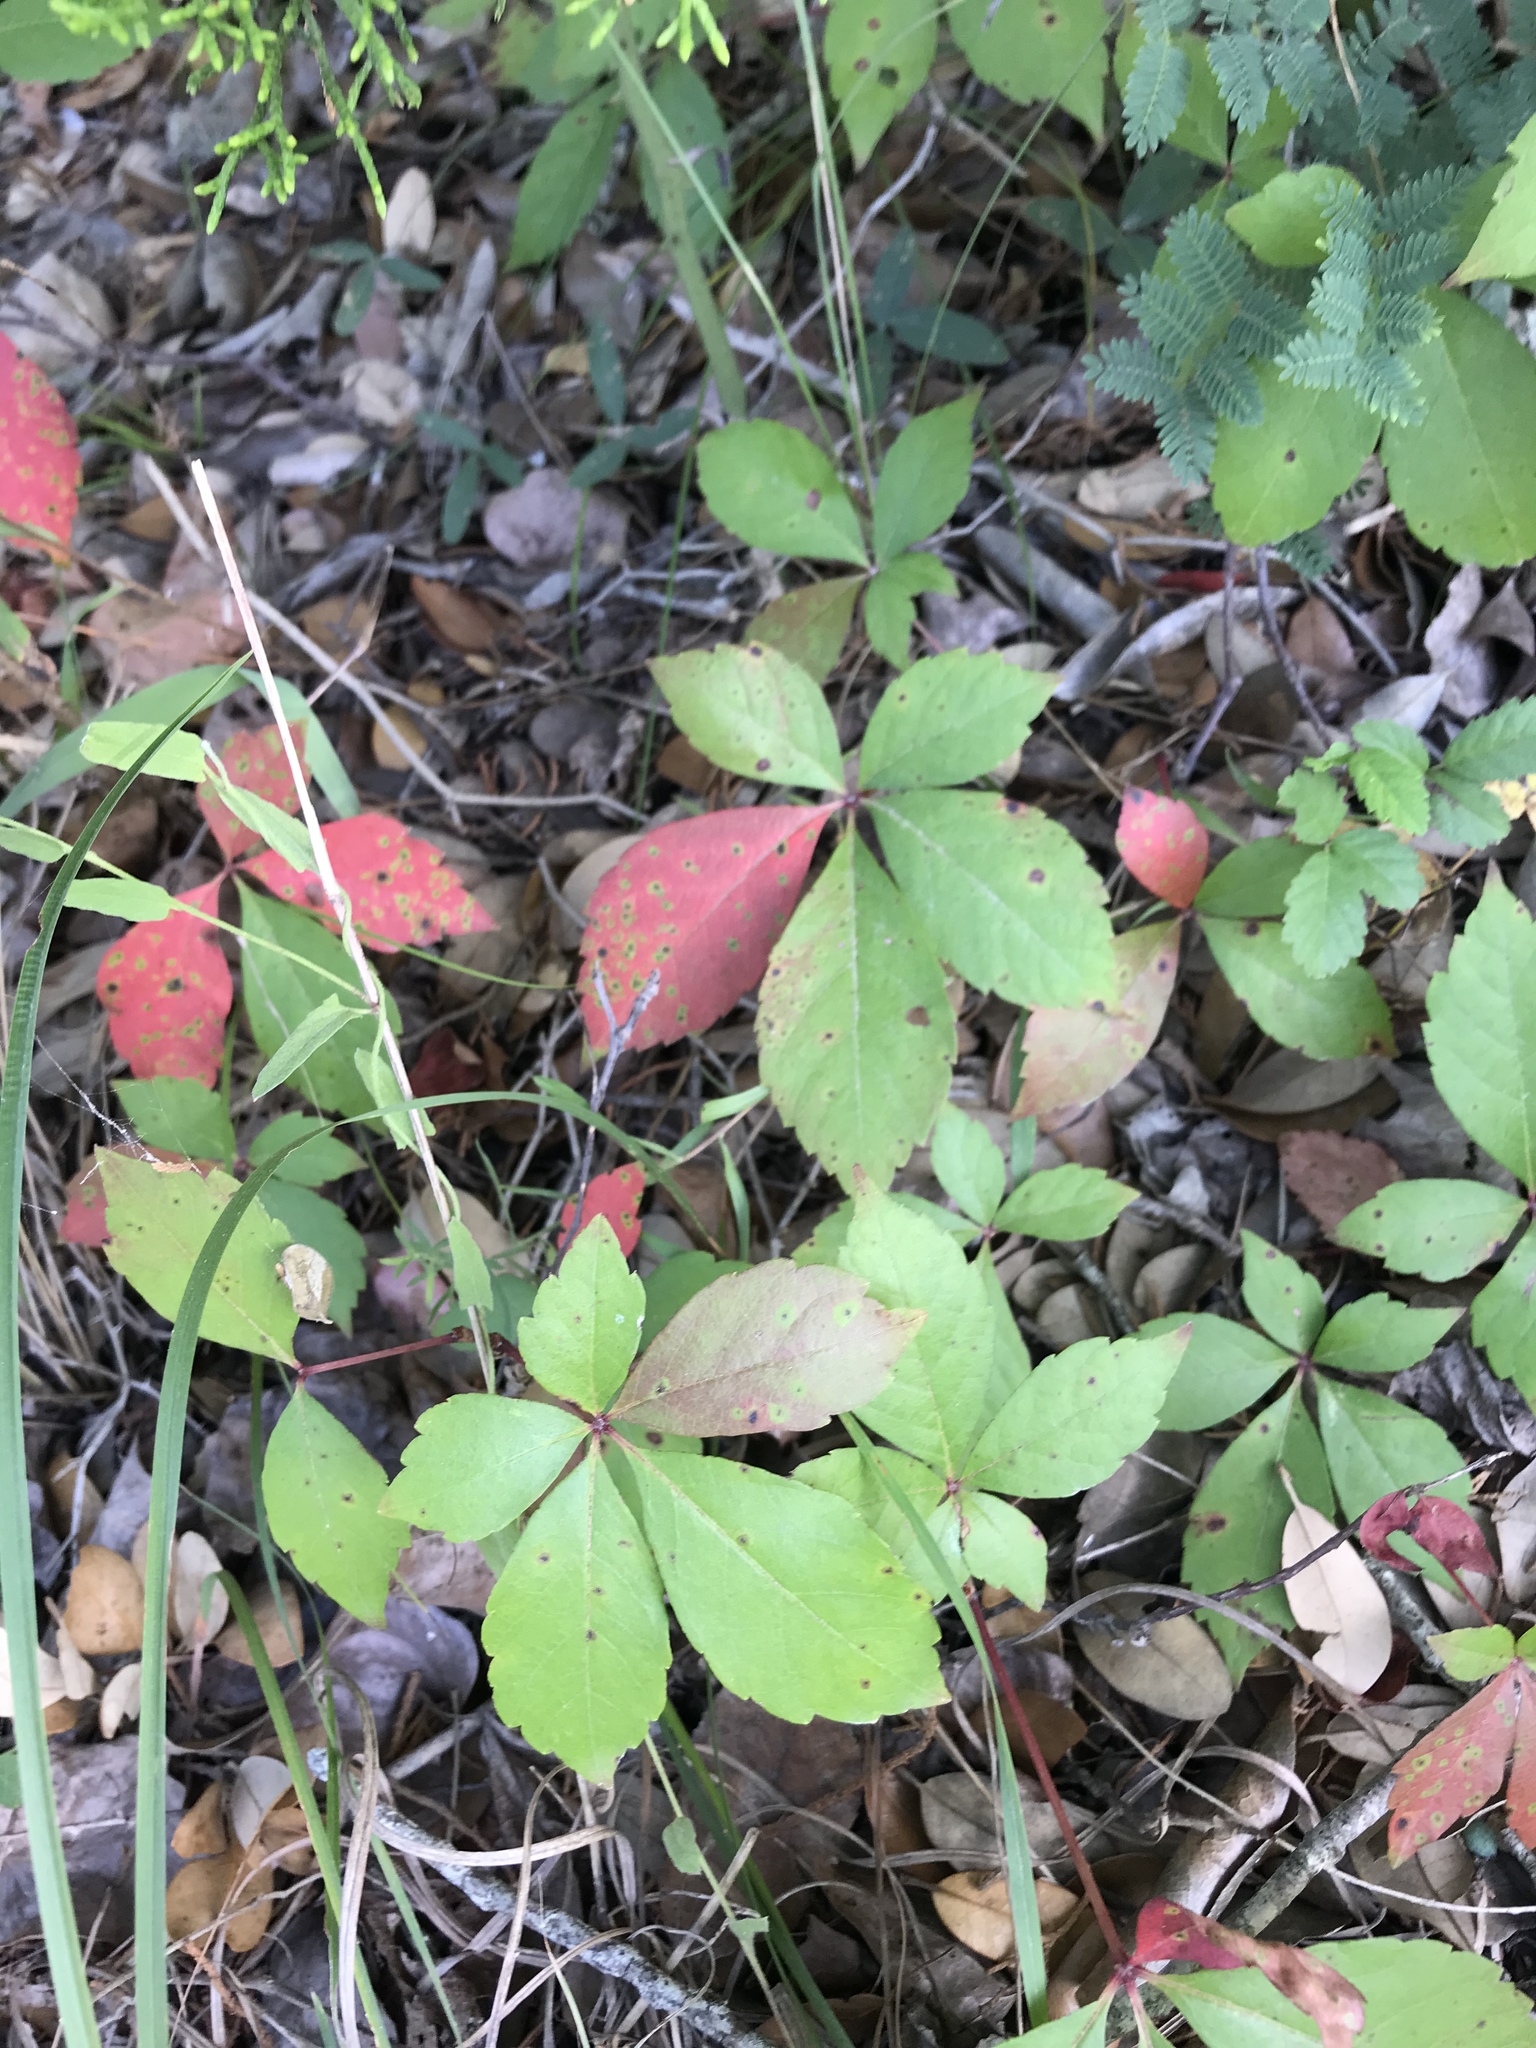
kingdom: Plantae
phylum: Tracheophyta
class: Magnoliopsida
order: Vitales
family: Vitaceae
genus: Parthenocissus
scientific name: Parthenocissus quinquefolia
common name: Virginia-creeper
